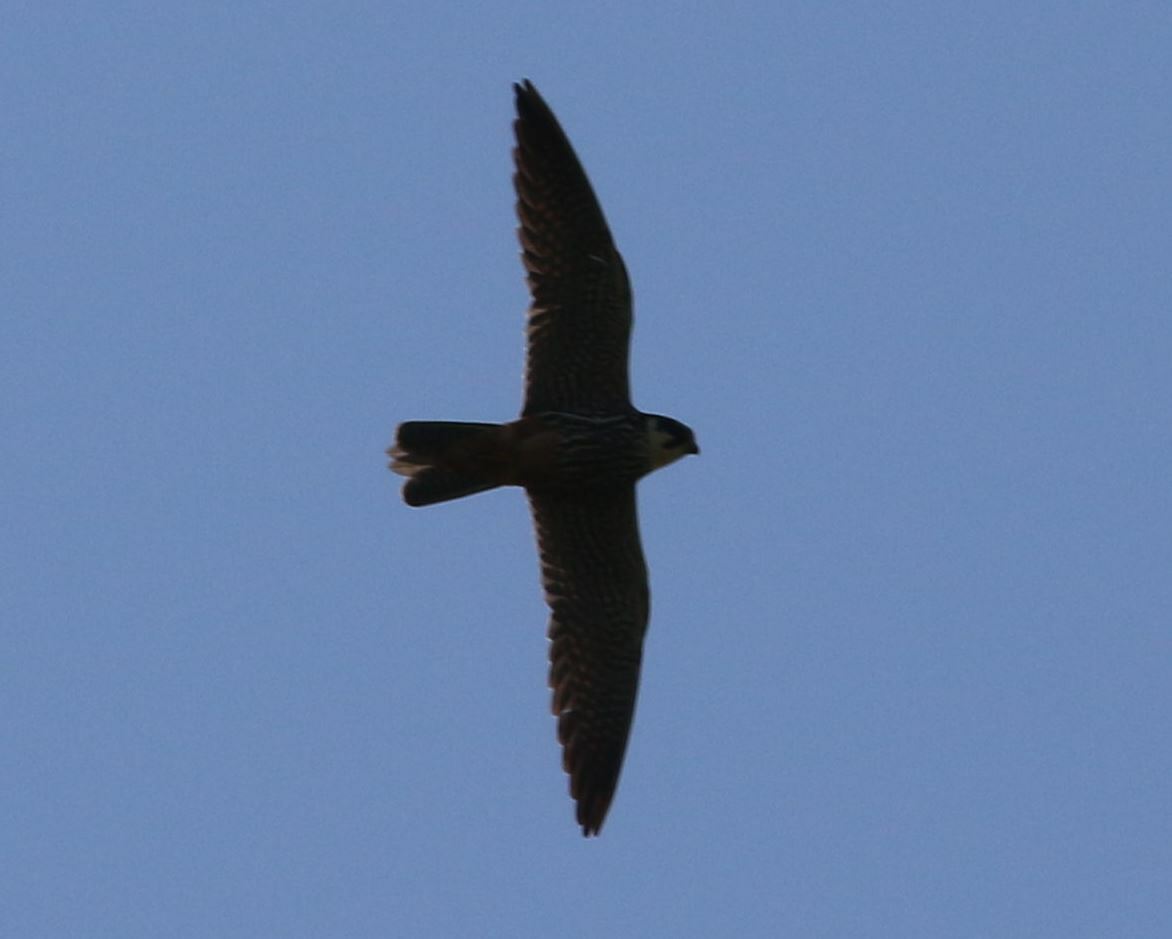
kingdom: Animalia
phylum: Chordata
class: Aves
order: Falconiformes
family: Falconidae
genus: Falco
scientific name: Falco subbuteo
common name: Eurasian hobby
